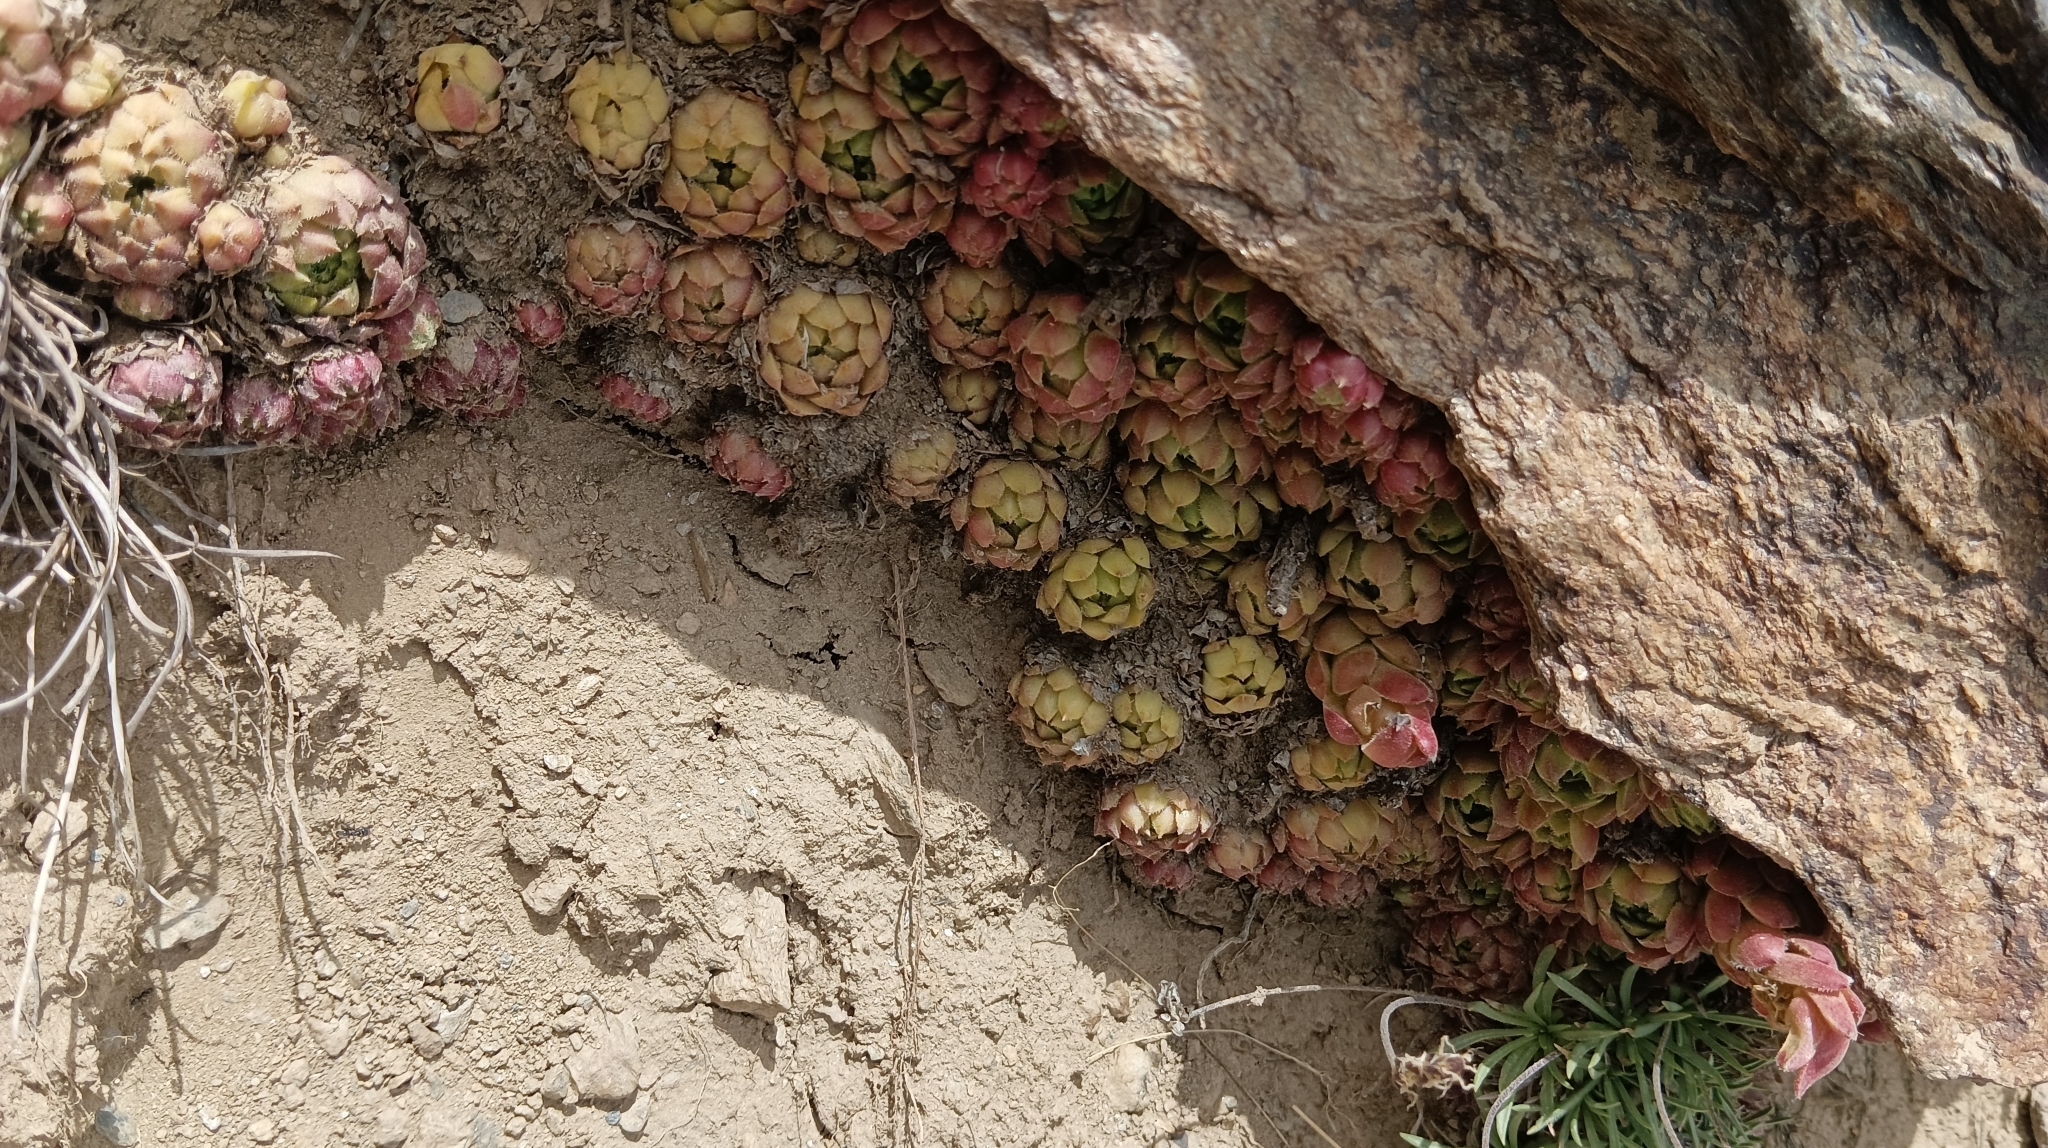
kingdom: Plantae
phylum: Tracheophyta
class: Magnoliopsida
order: Saxifragales
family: Crassulaceae
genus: Sempervivum
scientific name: Sempervivum minutum
